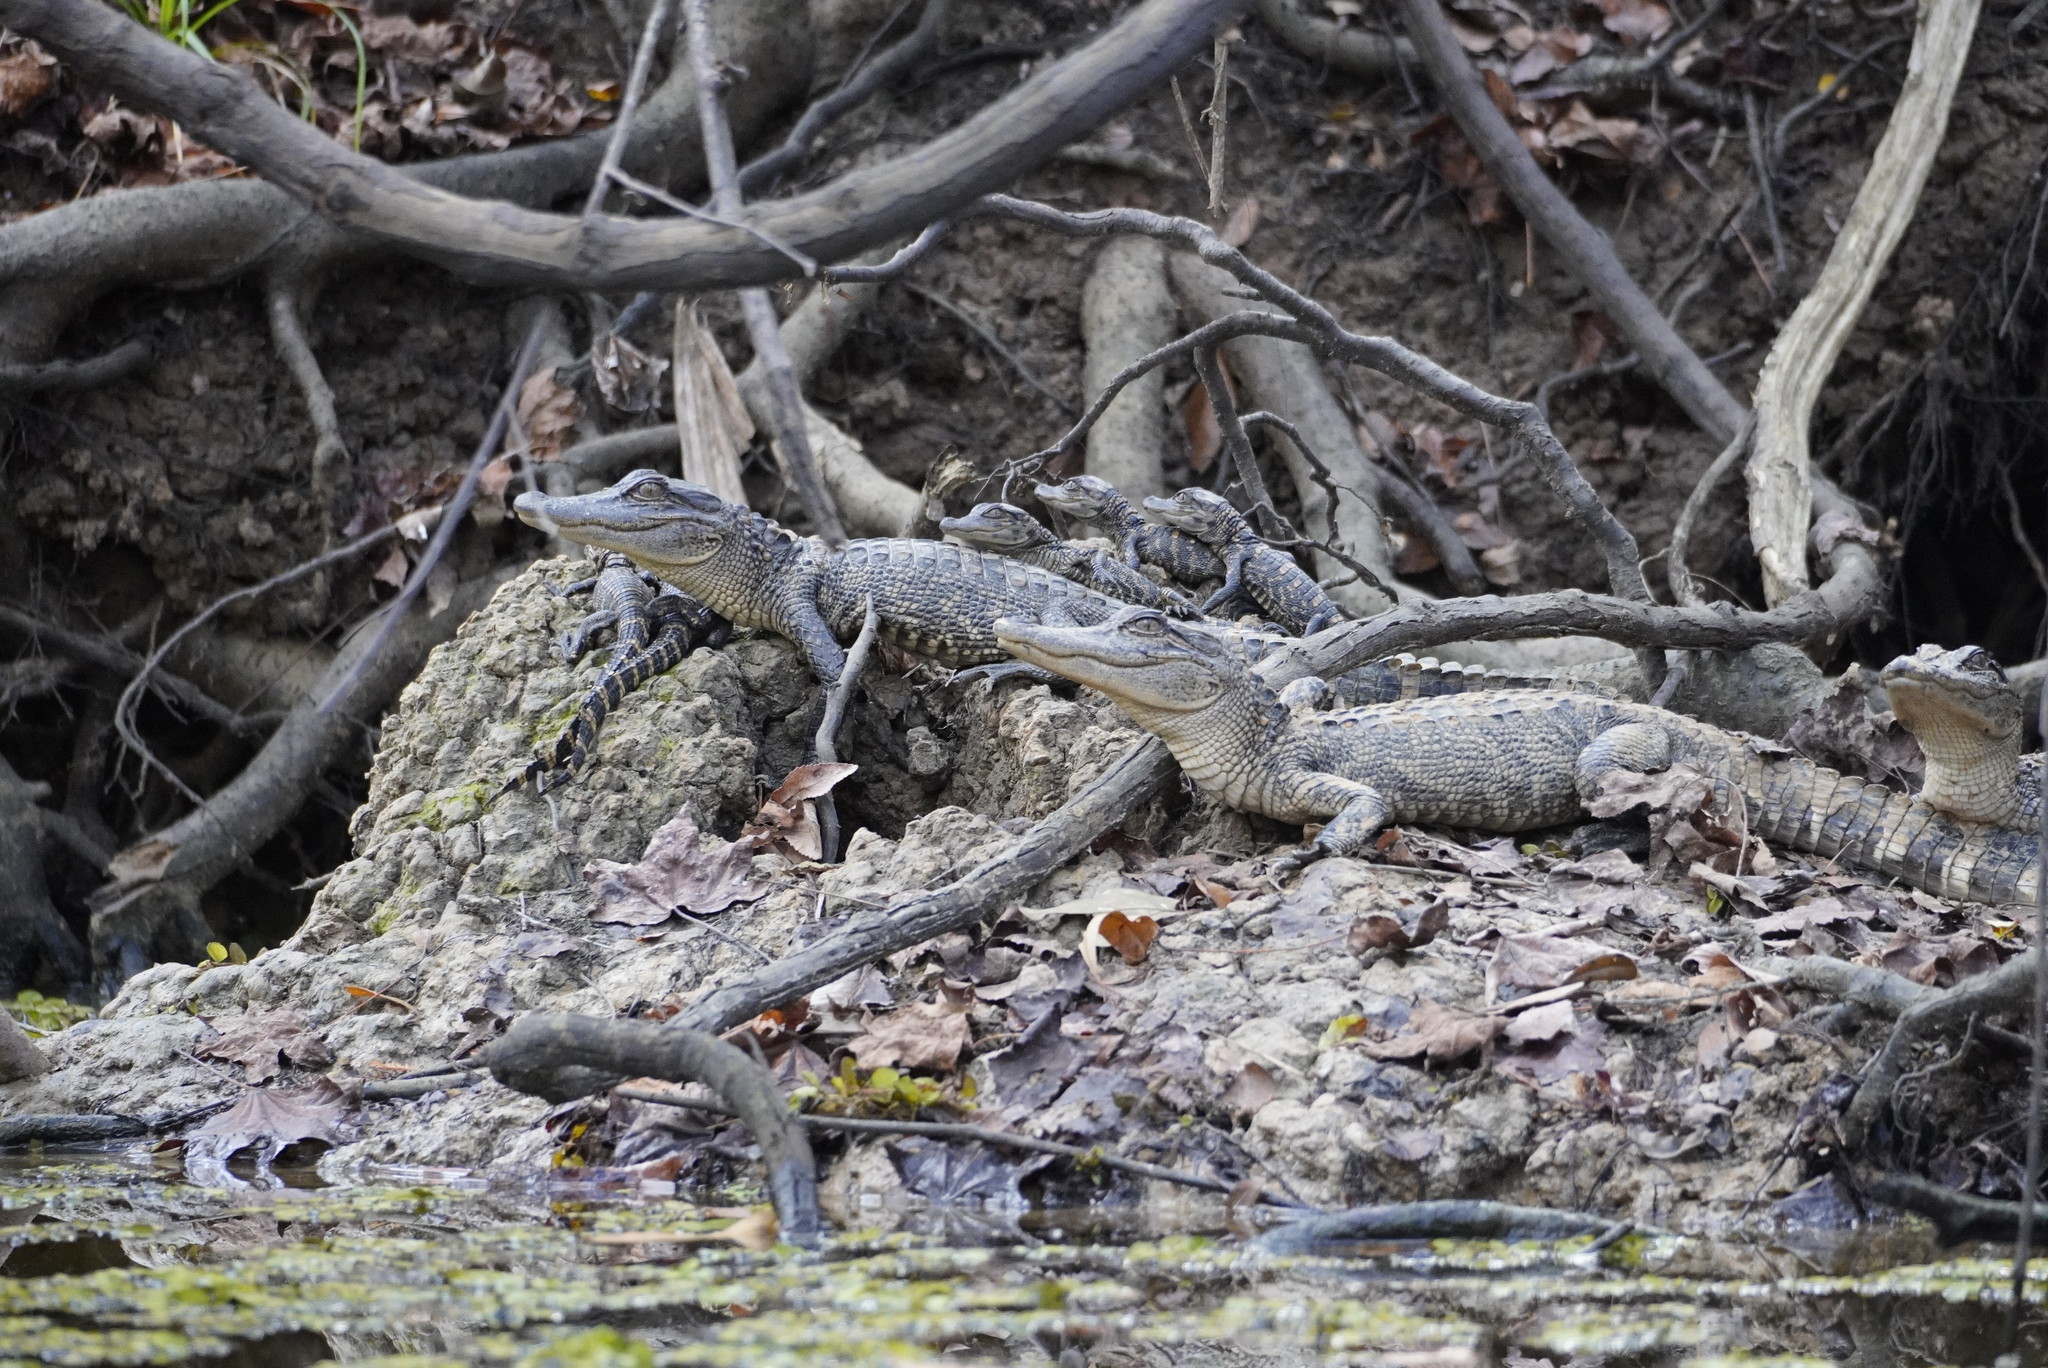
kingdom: Animalia
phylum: Chordata
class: Crocodylia
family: Alligatoridae
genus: Alligator
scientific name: Alligator mississippiensis
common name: American alligator
